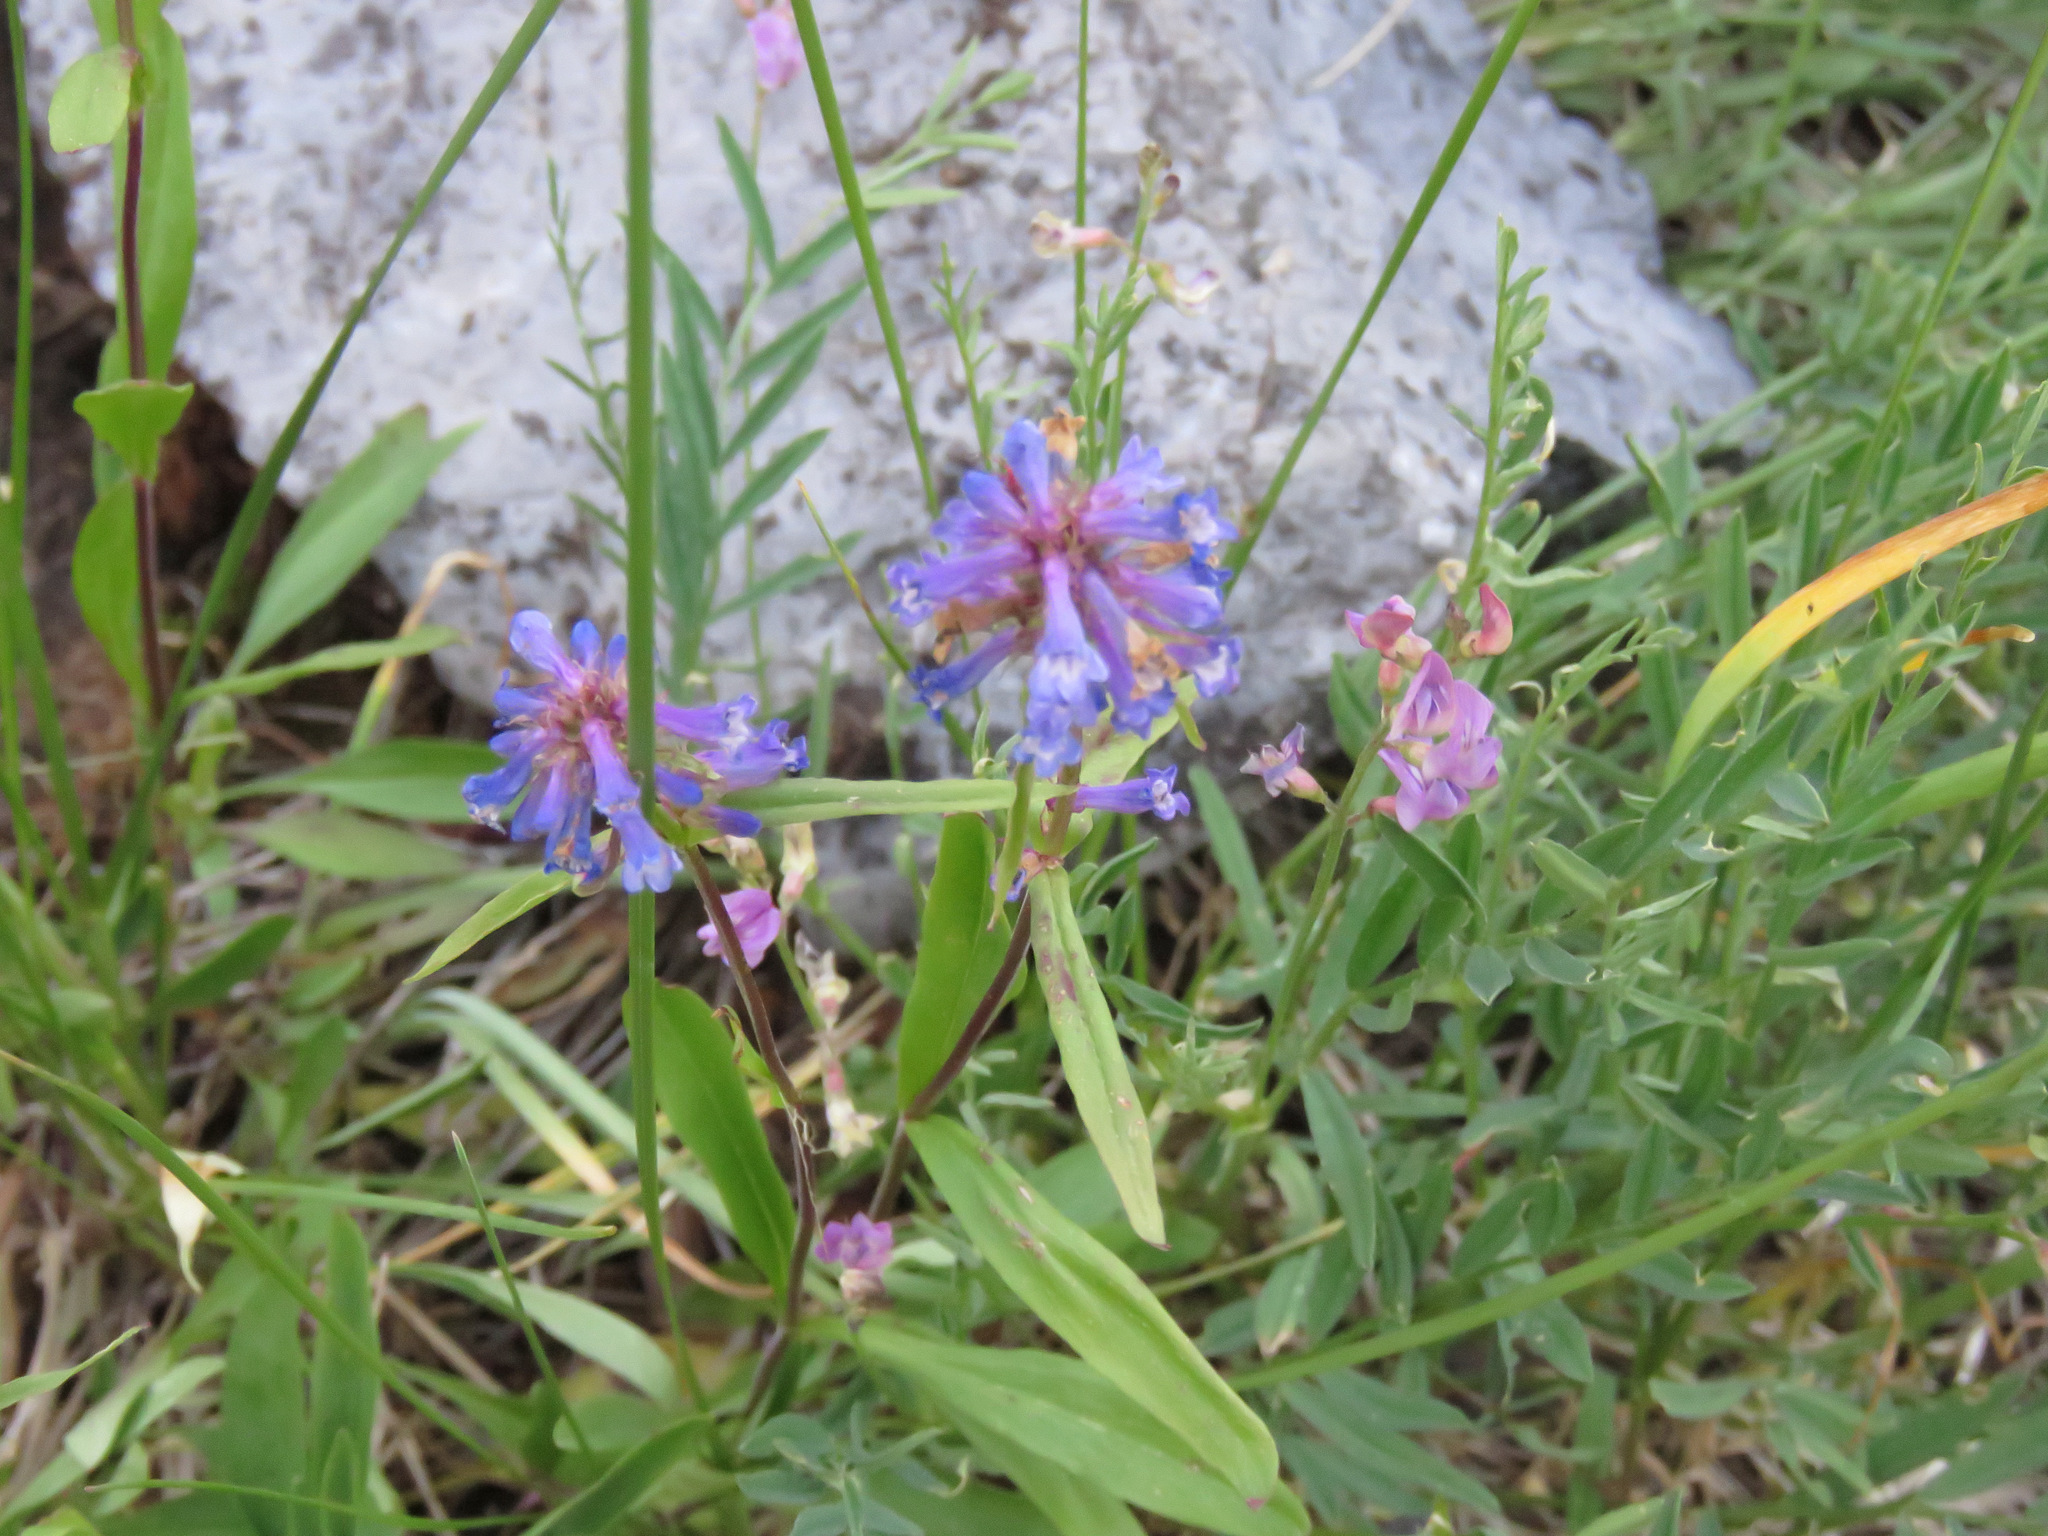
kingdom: Plantae
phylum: Tracheophyta
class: Magnoliopsida
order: Lamiales
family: Plantaginaceae
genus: Penstemon
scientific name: Penstemon procerus
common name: Small-flower penstemon
